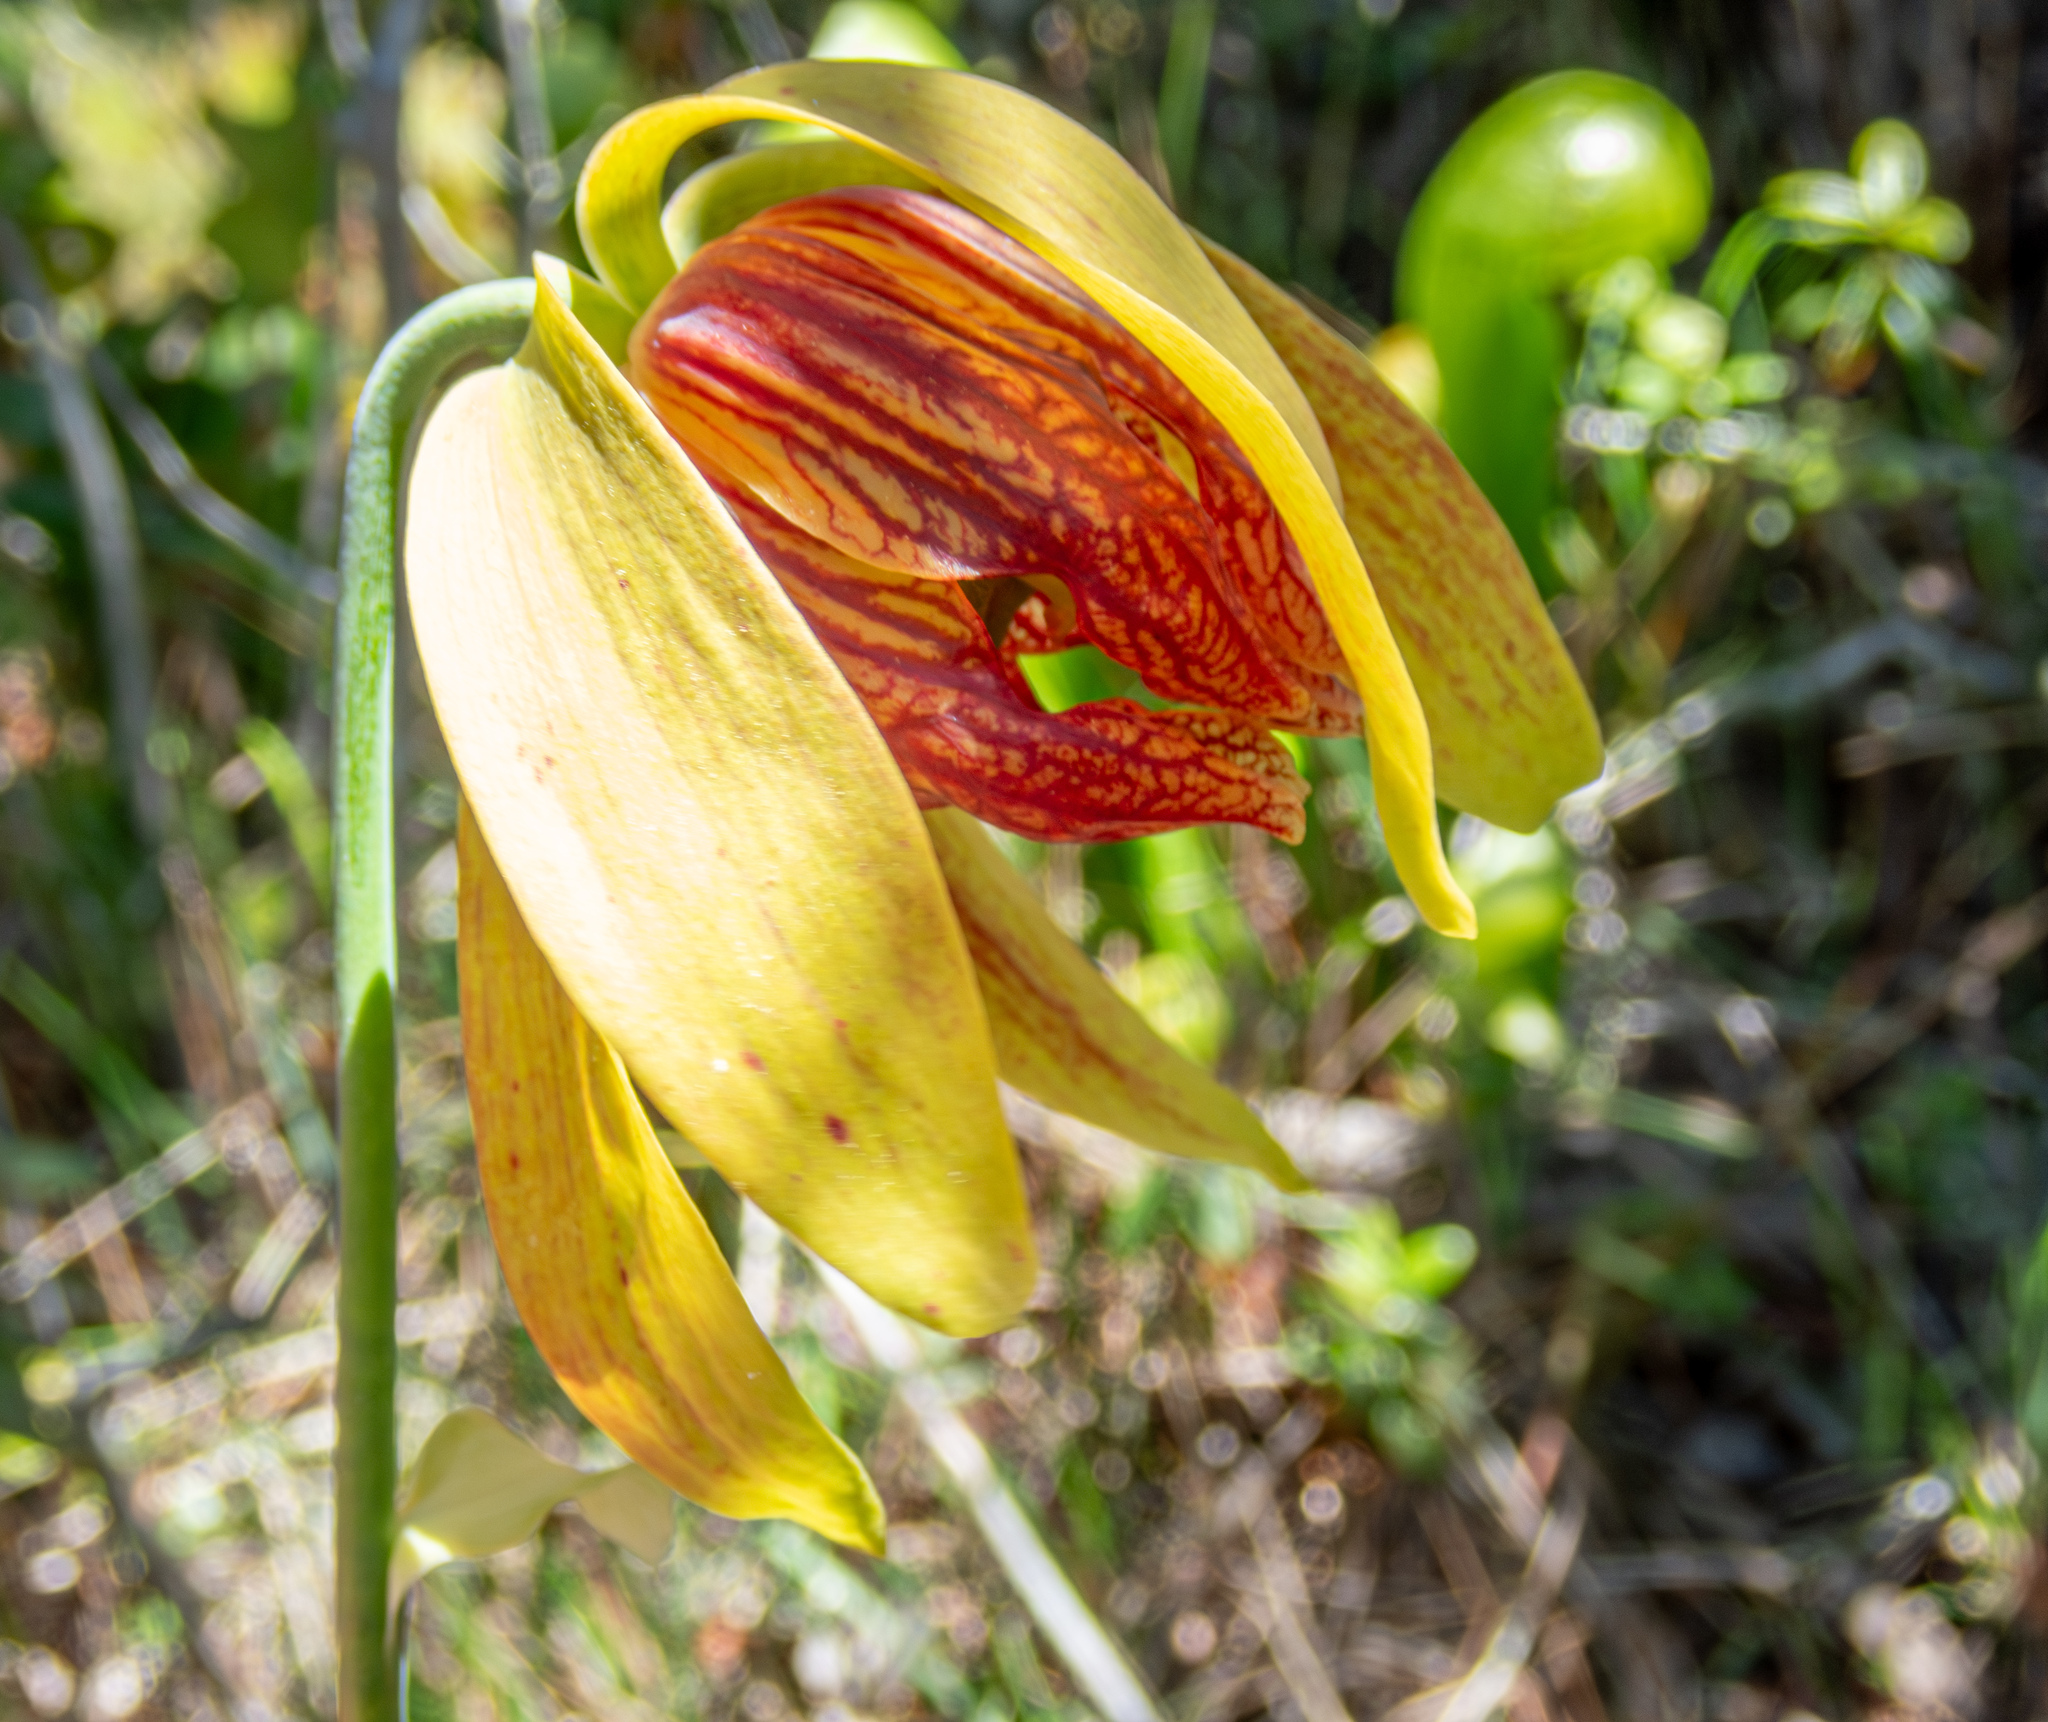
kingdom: Plantae
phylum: Tracheophyta
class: Magnoliopsida
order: Ericales
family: Sarraceniaceae
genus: Darlingtonia
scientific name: Darlingtonia californica
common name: California pitcher plant
